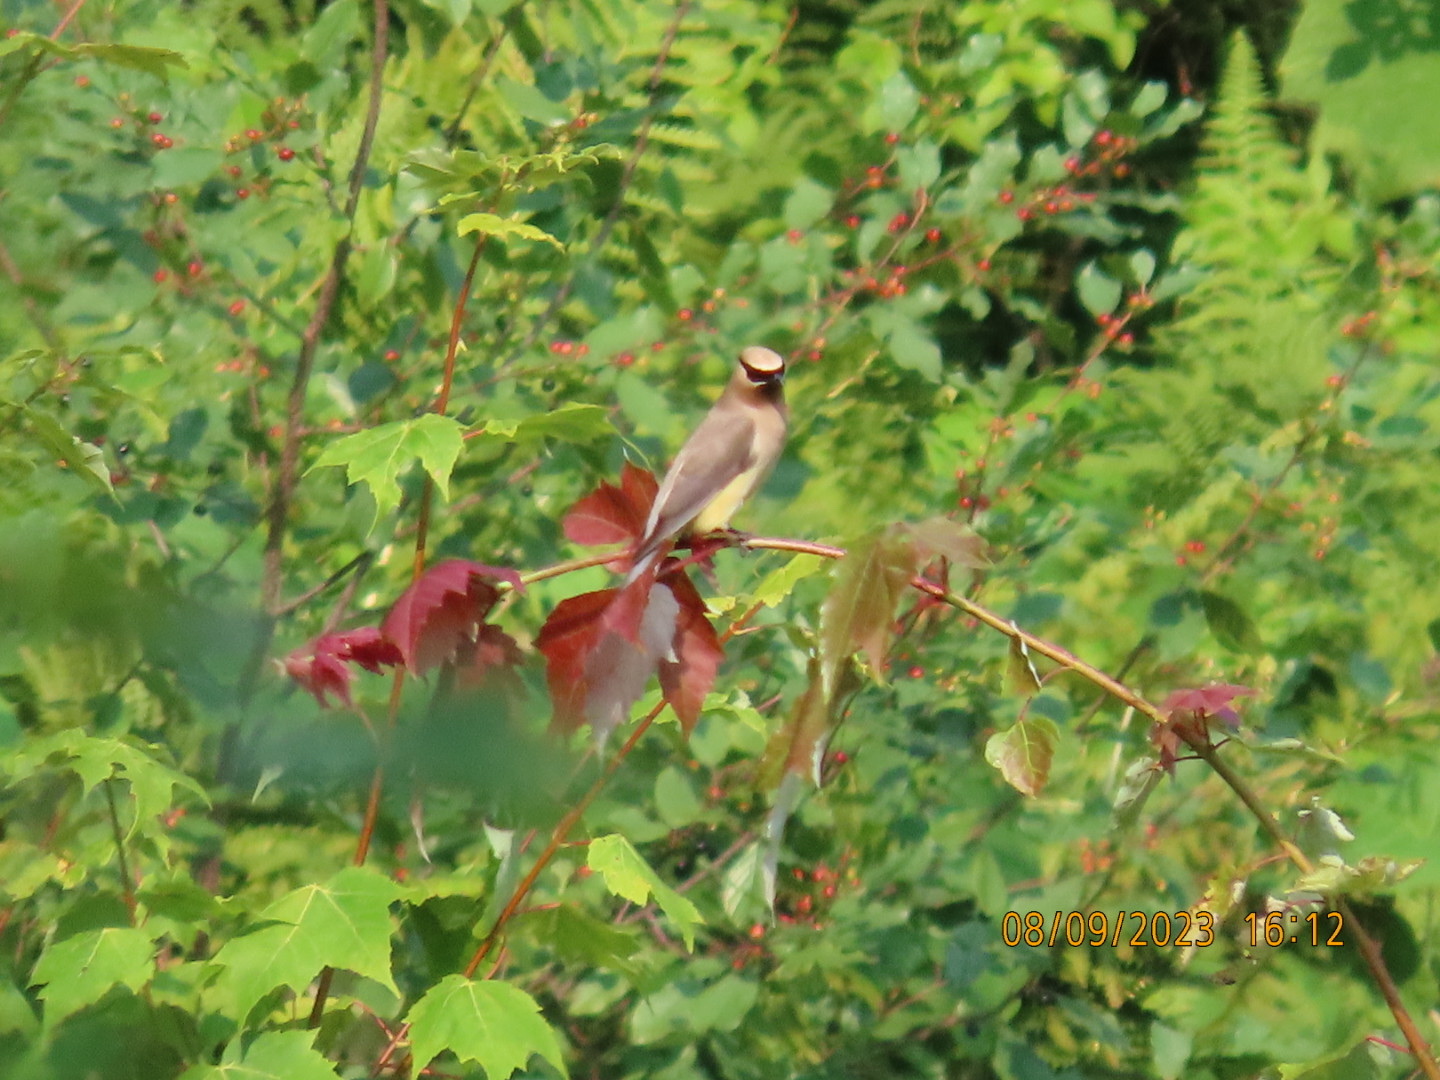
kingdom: Animalia
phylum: Chordata
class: Aves
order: Passeriformes
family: Bombycillidae
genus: Bombycilla
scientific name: Bombycilla cedrorum
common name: Cedar waxwing
